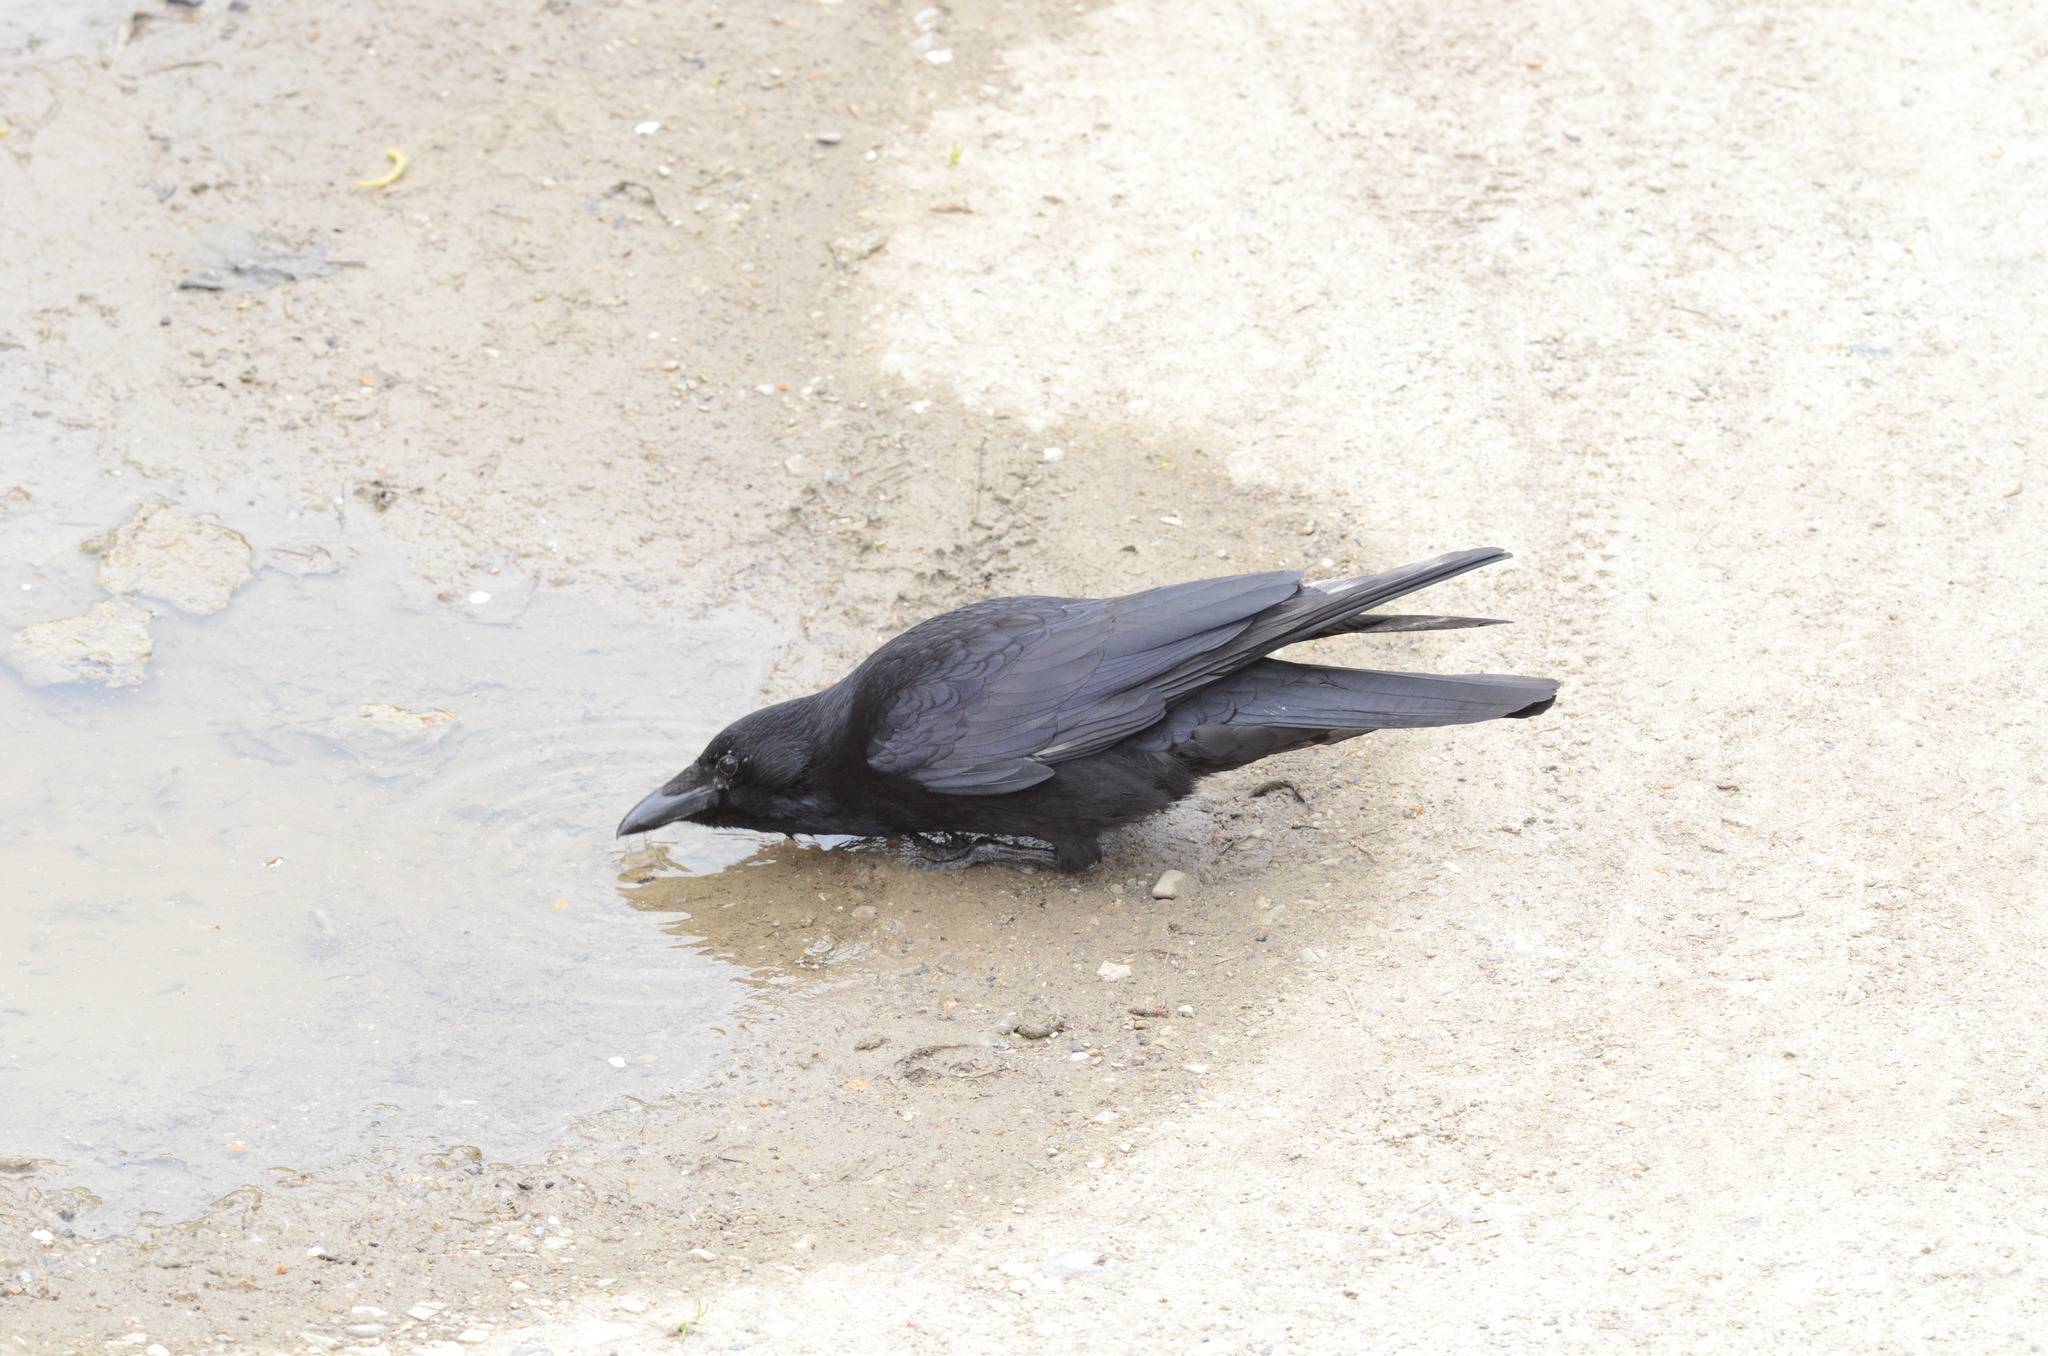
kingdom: Animalia
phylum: Chordata
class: Aves
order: Passeriformes
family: Corvidae
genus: Corvus
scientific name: Corvus corone
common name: Carrion crow
